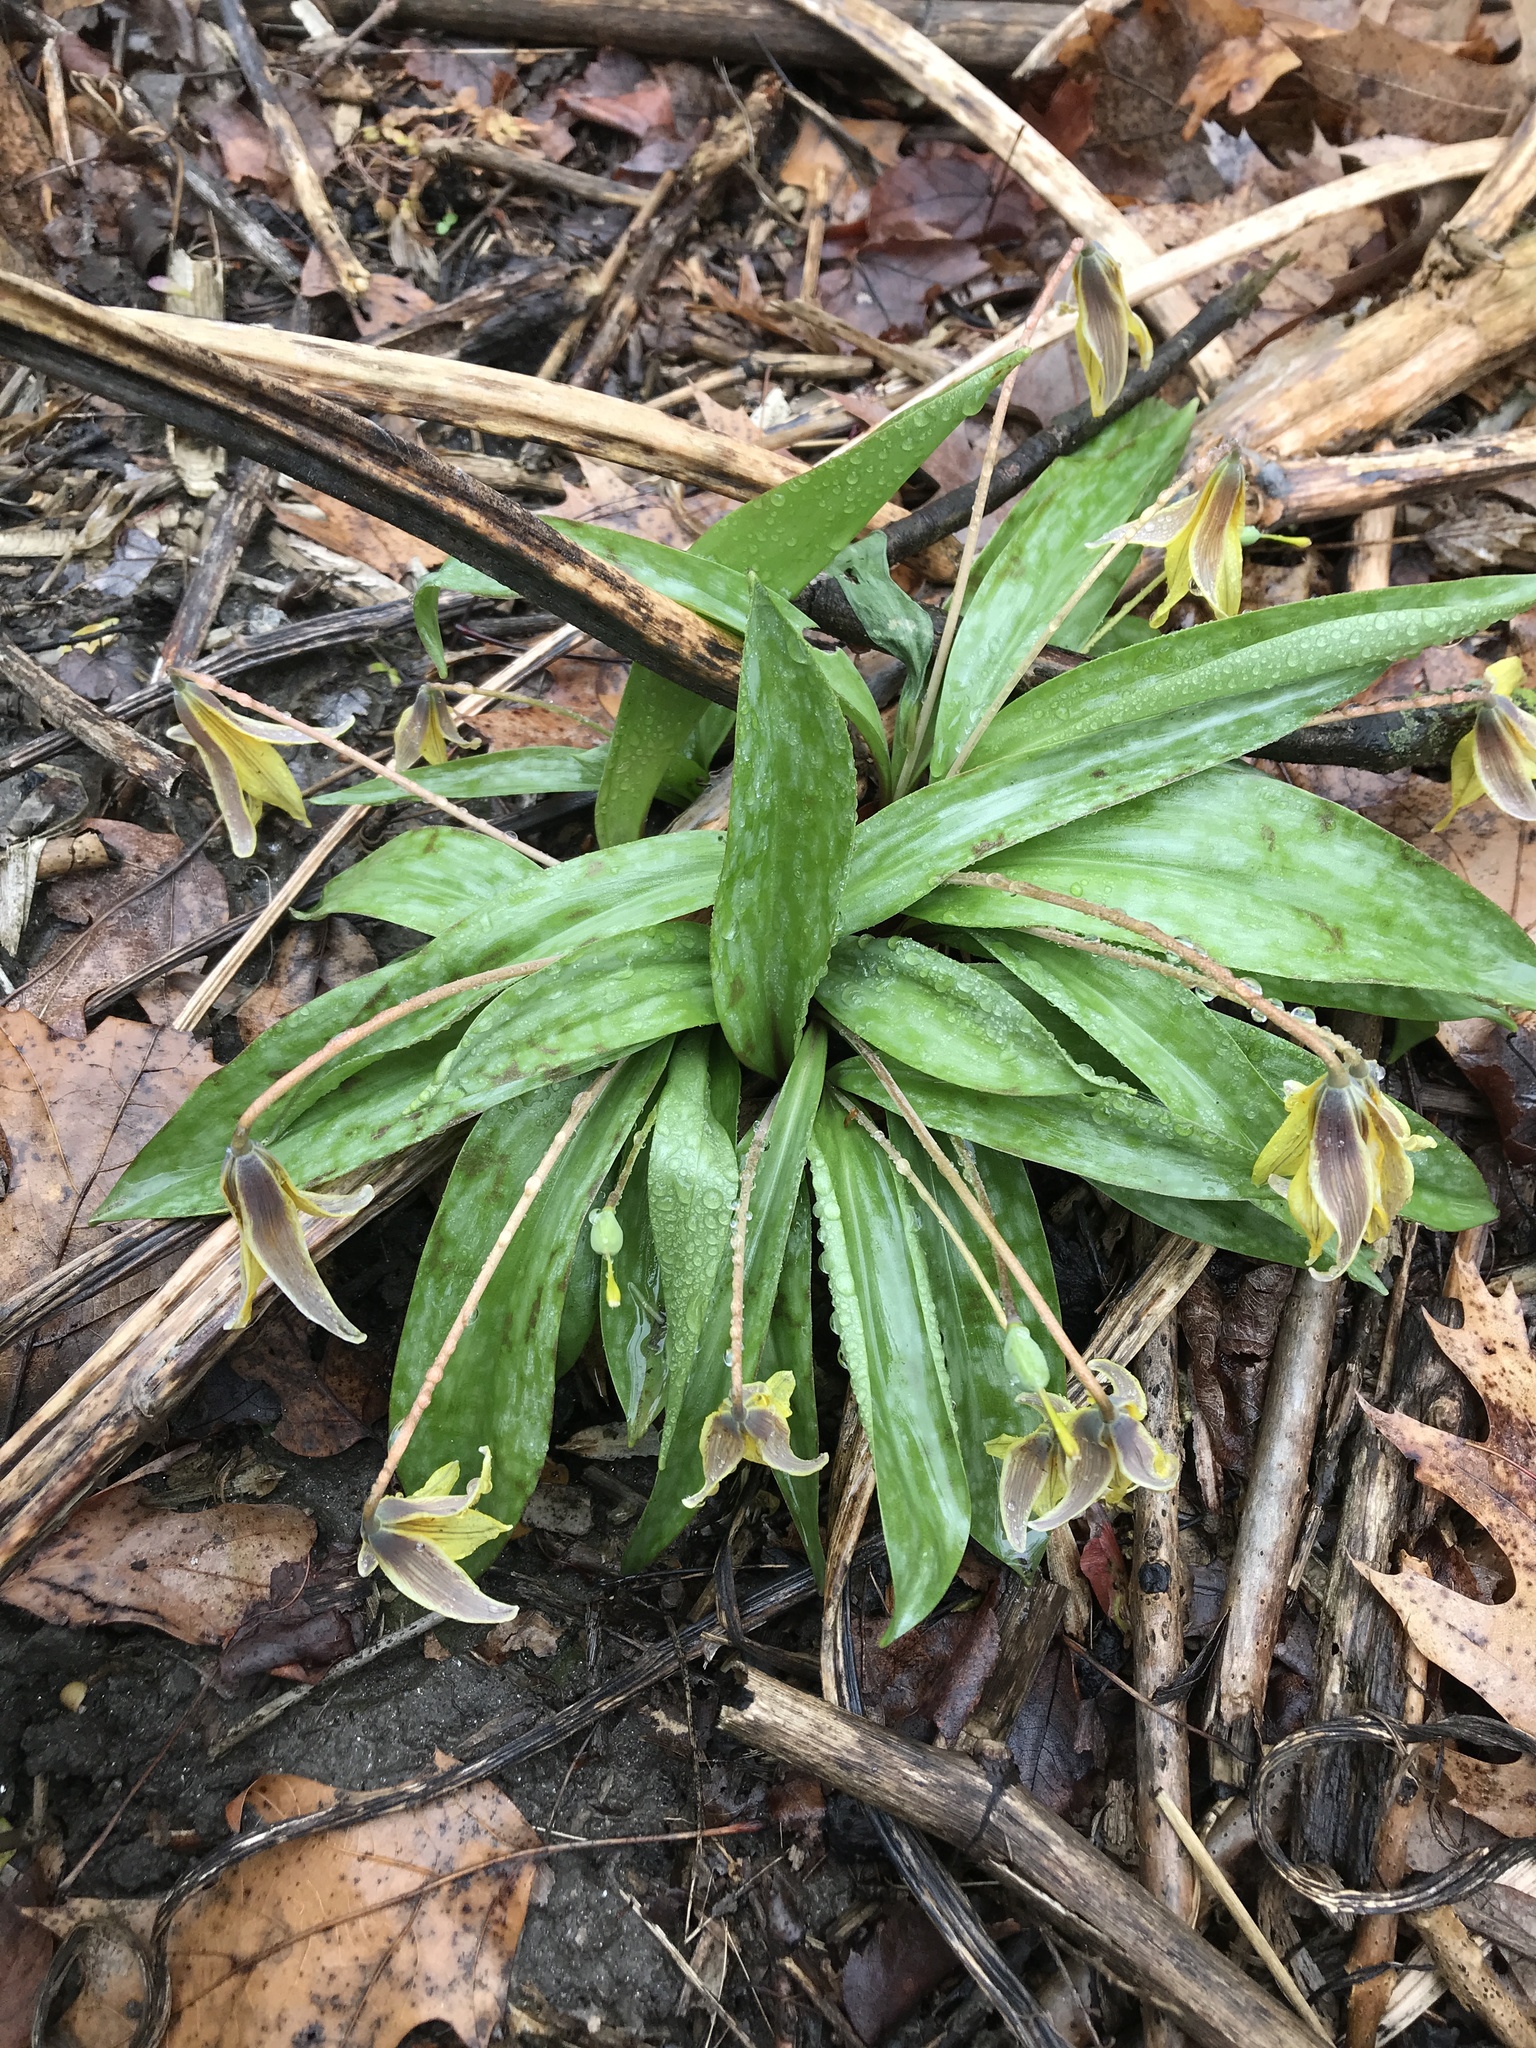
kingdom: Plantae
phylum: Tracheophyta
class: Liliopsida
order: Liliales
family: Liliaceae
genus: Erythronium
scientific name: Erythronium americanum
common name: Yellow adder's-tongue
